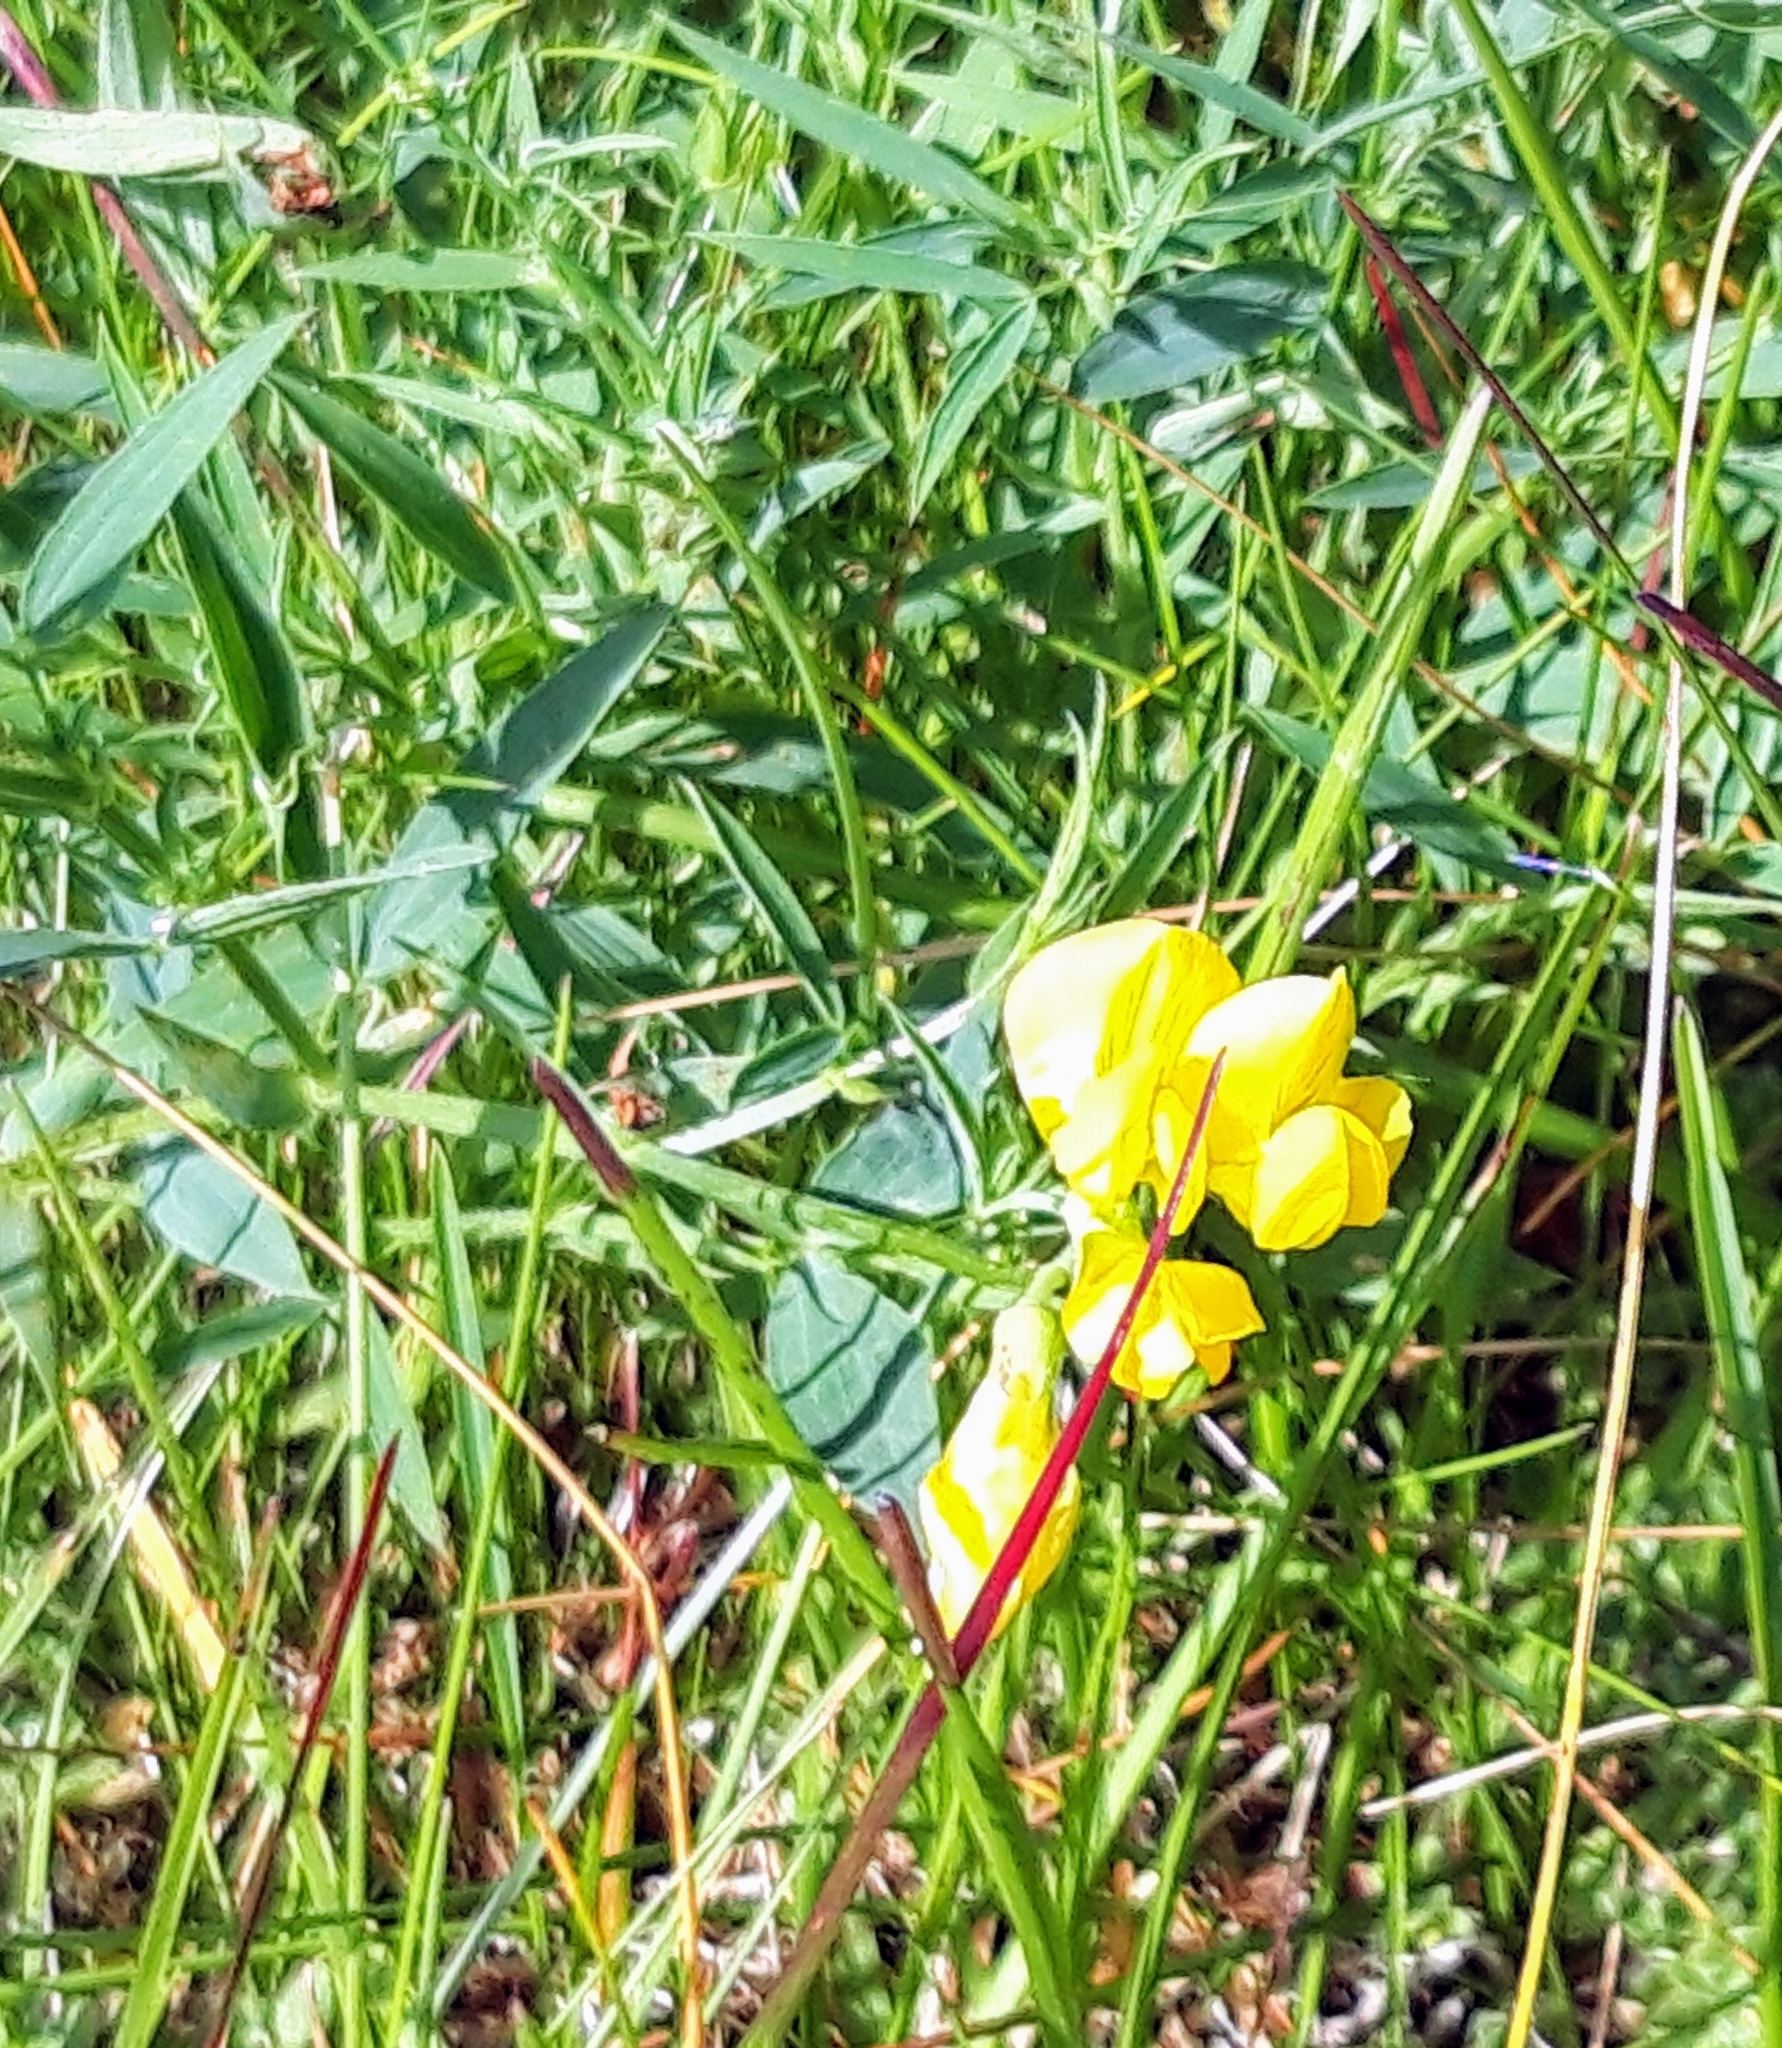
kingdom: Plantae
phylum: Tracheophyta
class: Magnoliopsida
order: Fabales
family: Fabaceae
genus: Lathyrus
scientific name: Lathyrus pratensis
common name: Meadow vetchling
